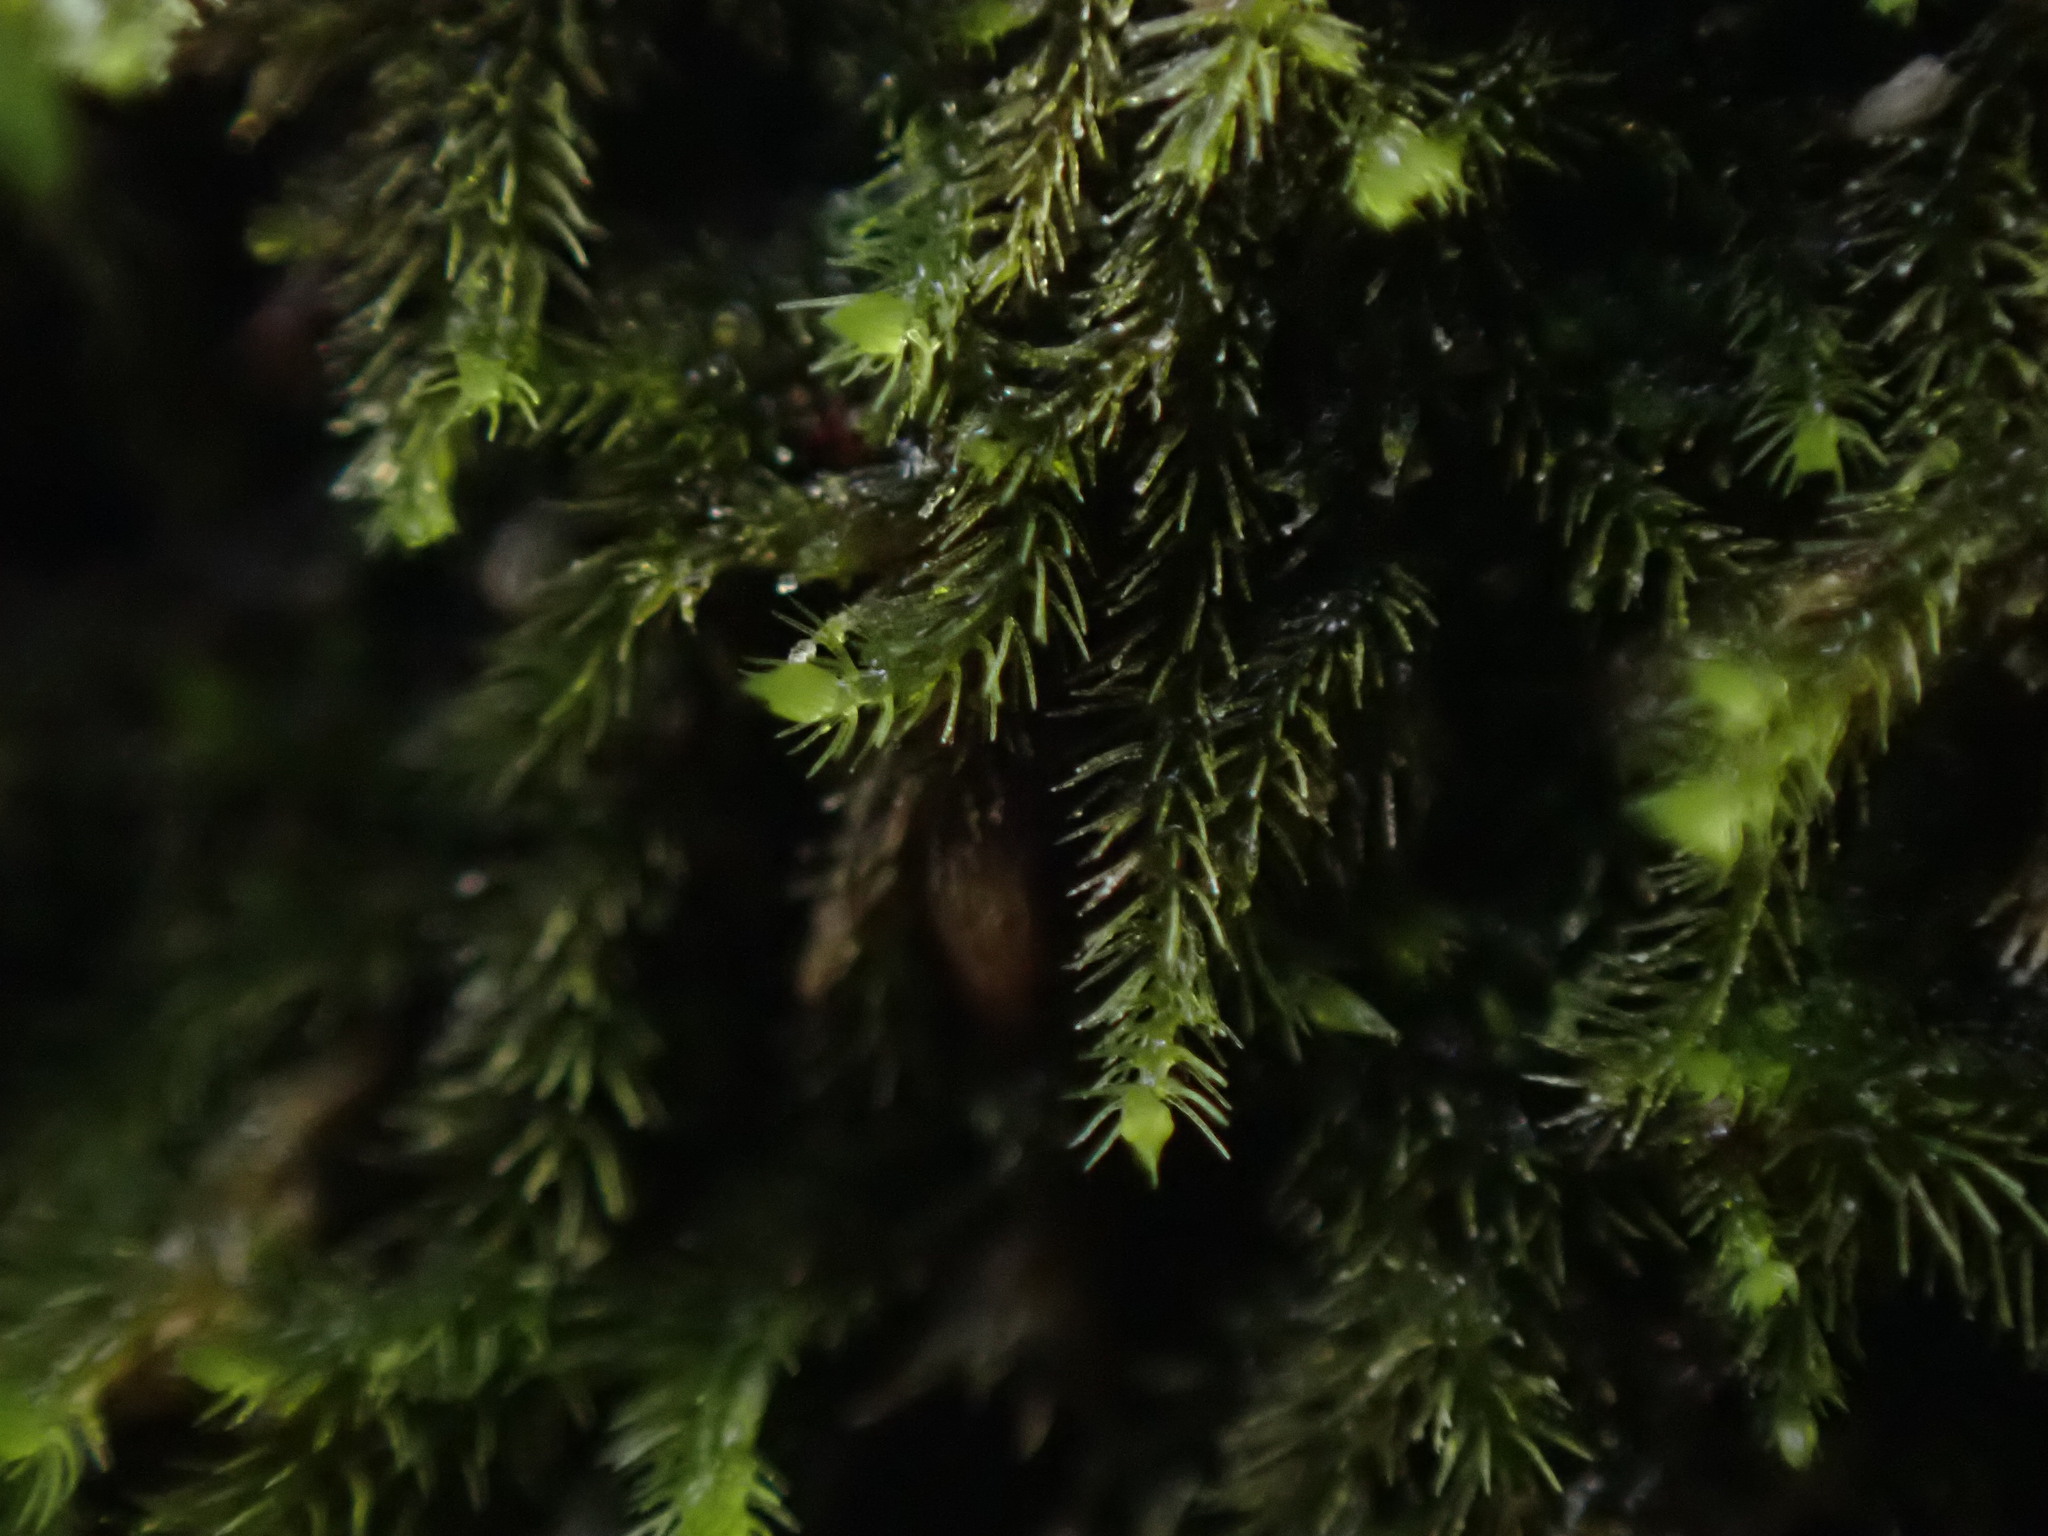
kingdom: Plantae
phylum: Marchantiophyta
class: Jungermanniopsida
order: Jungermanniales
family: Blepharostomataceae
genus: Blepharostoma
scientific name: Blepharostoma trichophyllum
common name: Hairy threadwort
